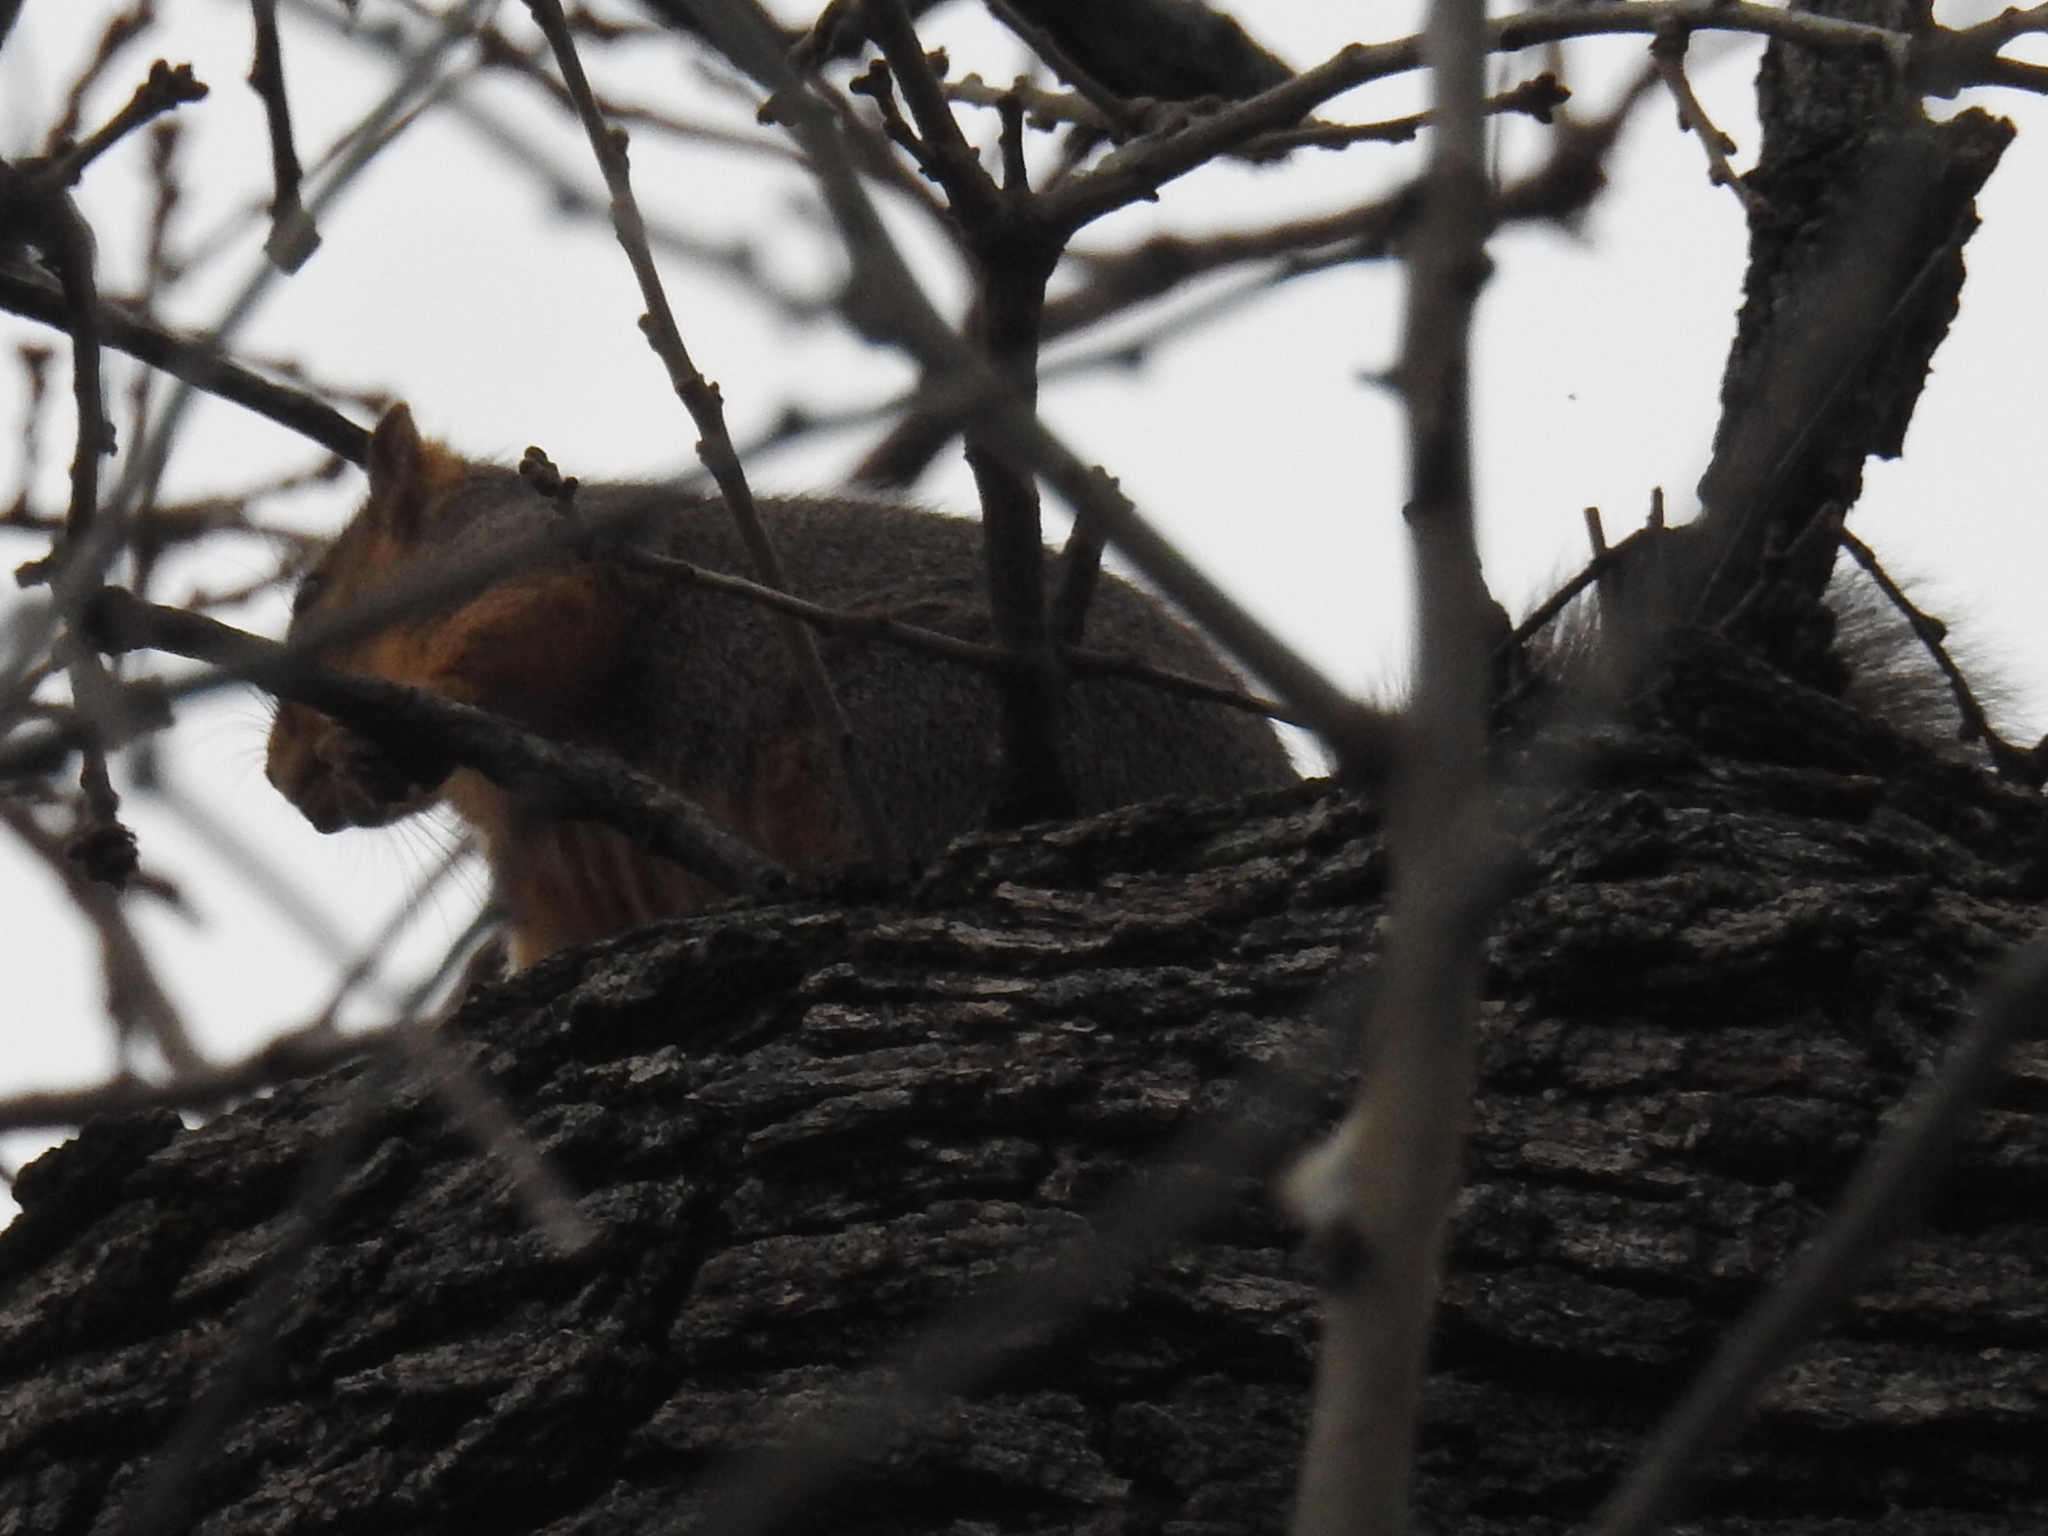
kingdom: Animalia
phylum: Chordata
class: Mammalia
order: Rodentia
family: Sciuridae
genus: Sciurus
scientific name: Sciurus niger
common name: Fox squirrel
